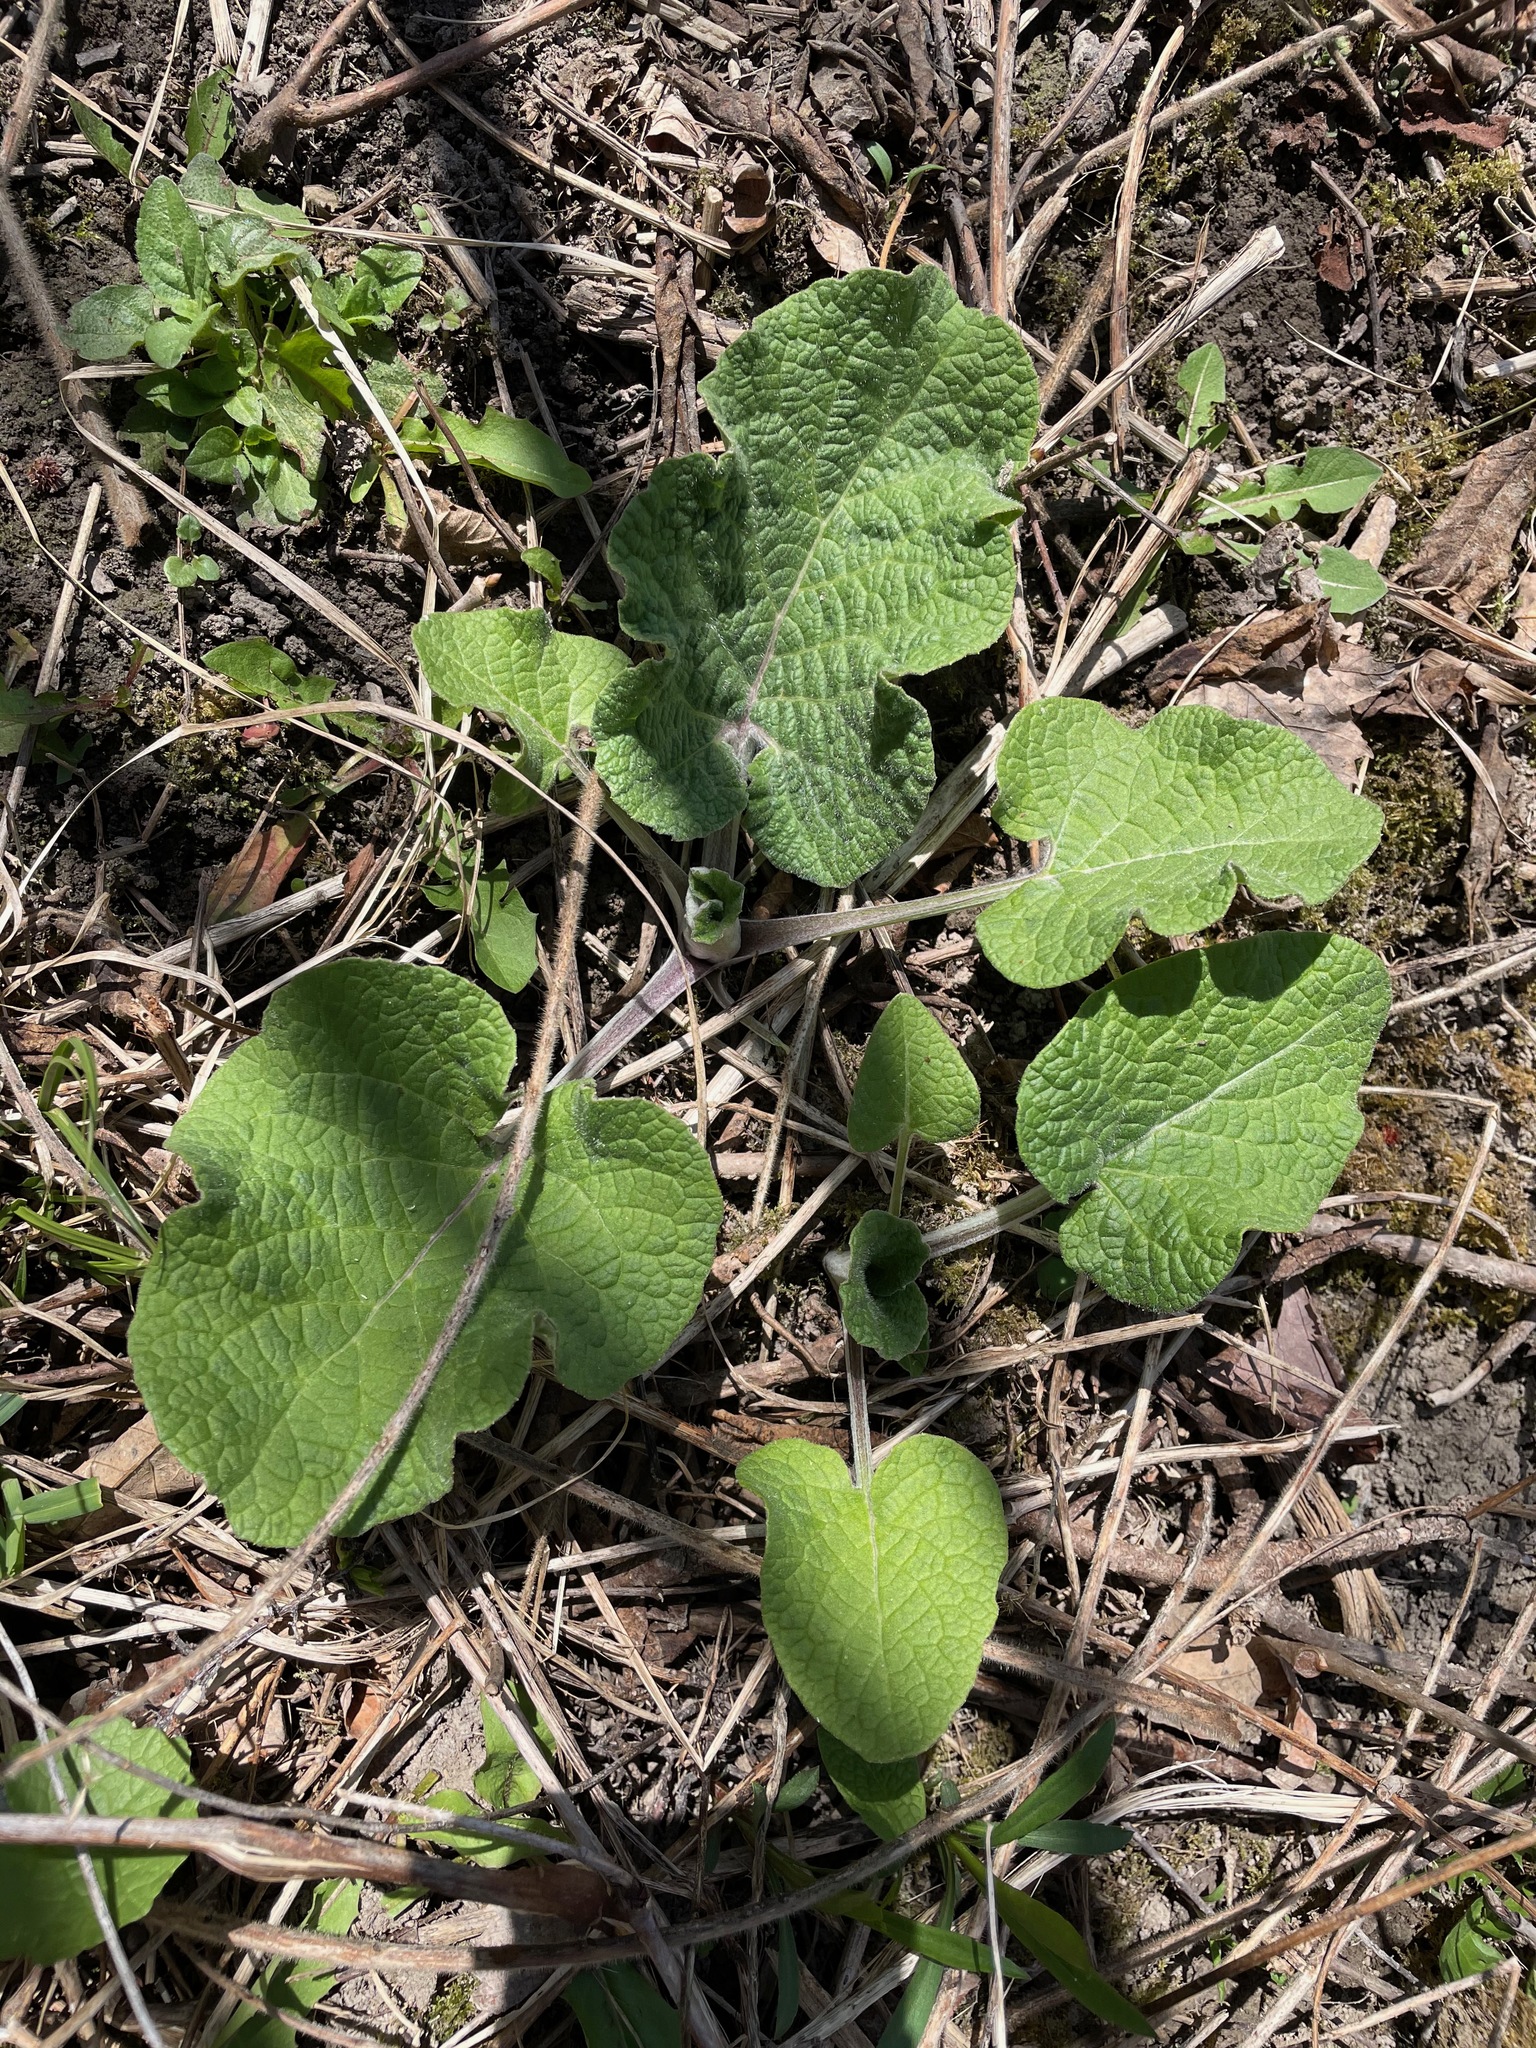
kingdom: Plantae
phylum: Tracheophyta
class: Magnoliopsida
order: Asterales
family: Asteraceae
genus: Arctium
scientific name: Arctium
